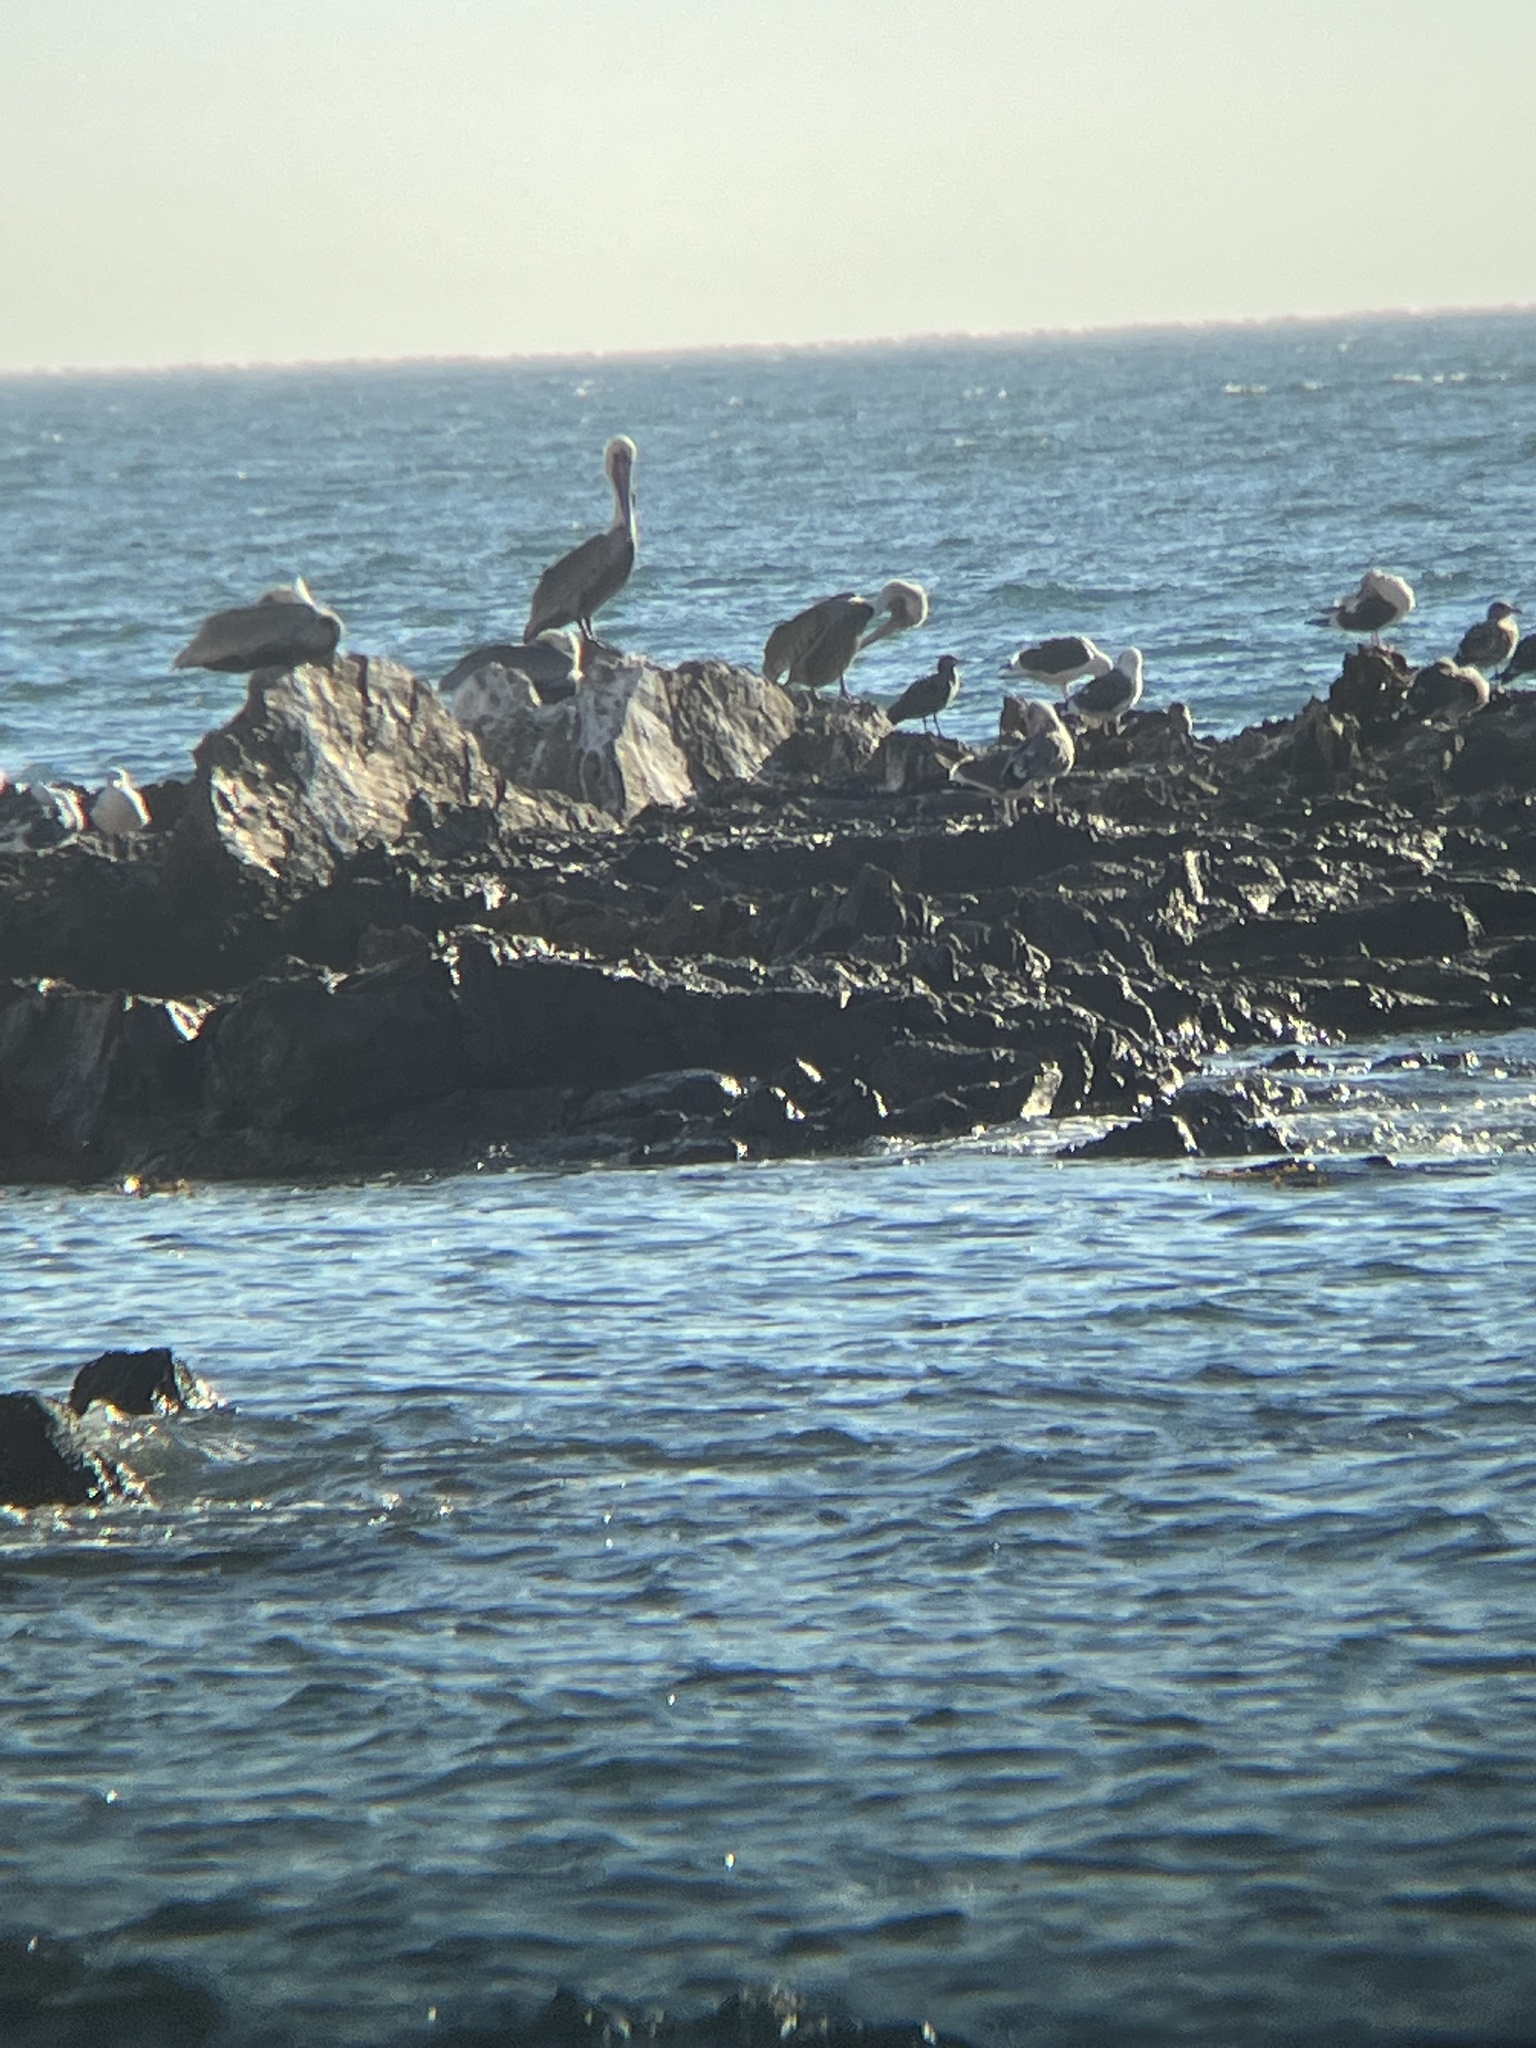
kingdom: Animalia
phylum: Chordata
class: Aves
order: Pelecaniformes
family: Pelecanidae
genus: Pelecanus
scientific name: Pelecanus occidentalis
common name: Brown pelican
